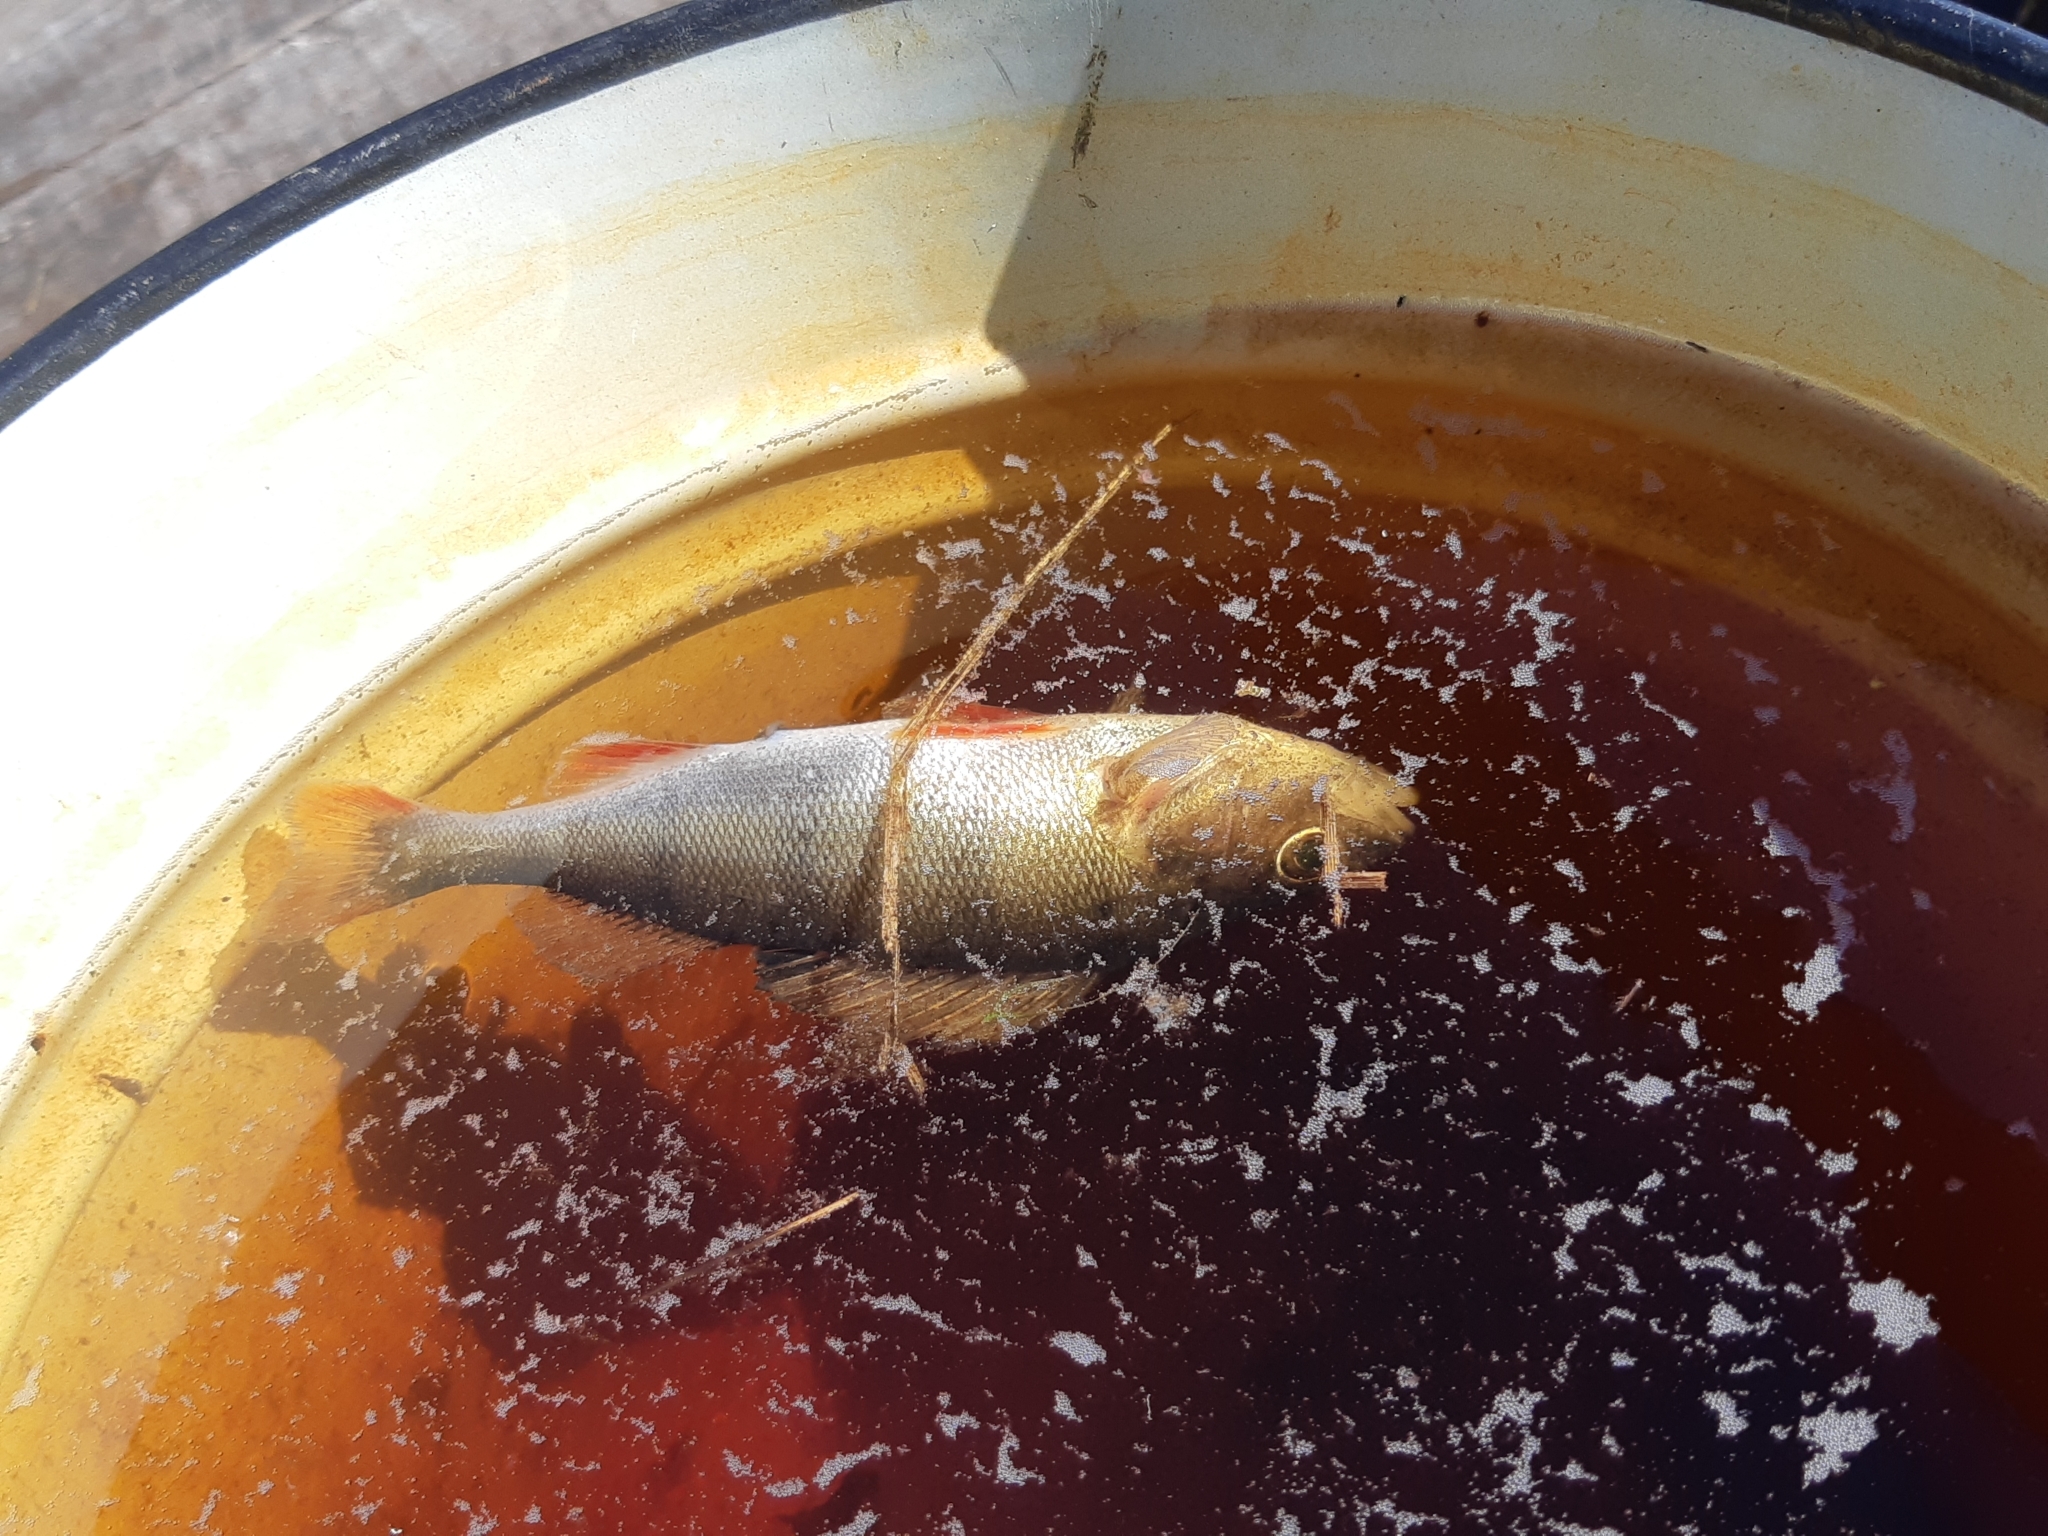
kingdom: Animalia
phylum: Chordata
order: Perciformes
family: Percidae
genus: Perca
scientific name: Perca fluviatilis
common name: Perch
